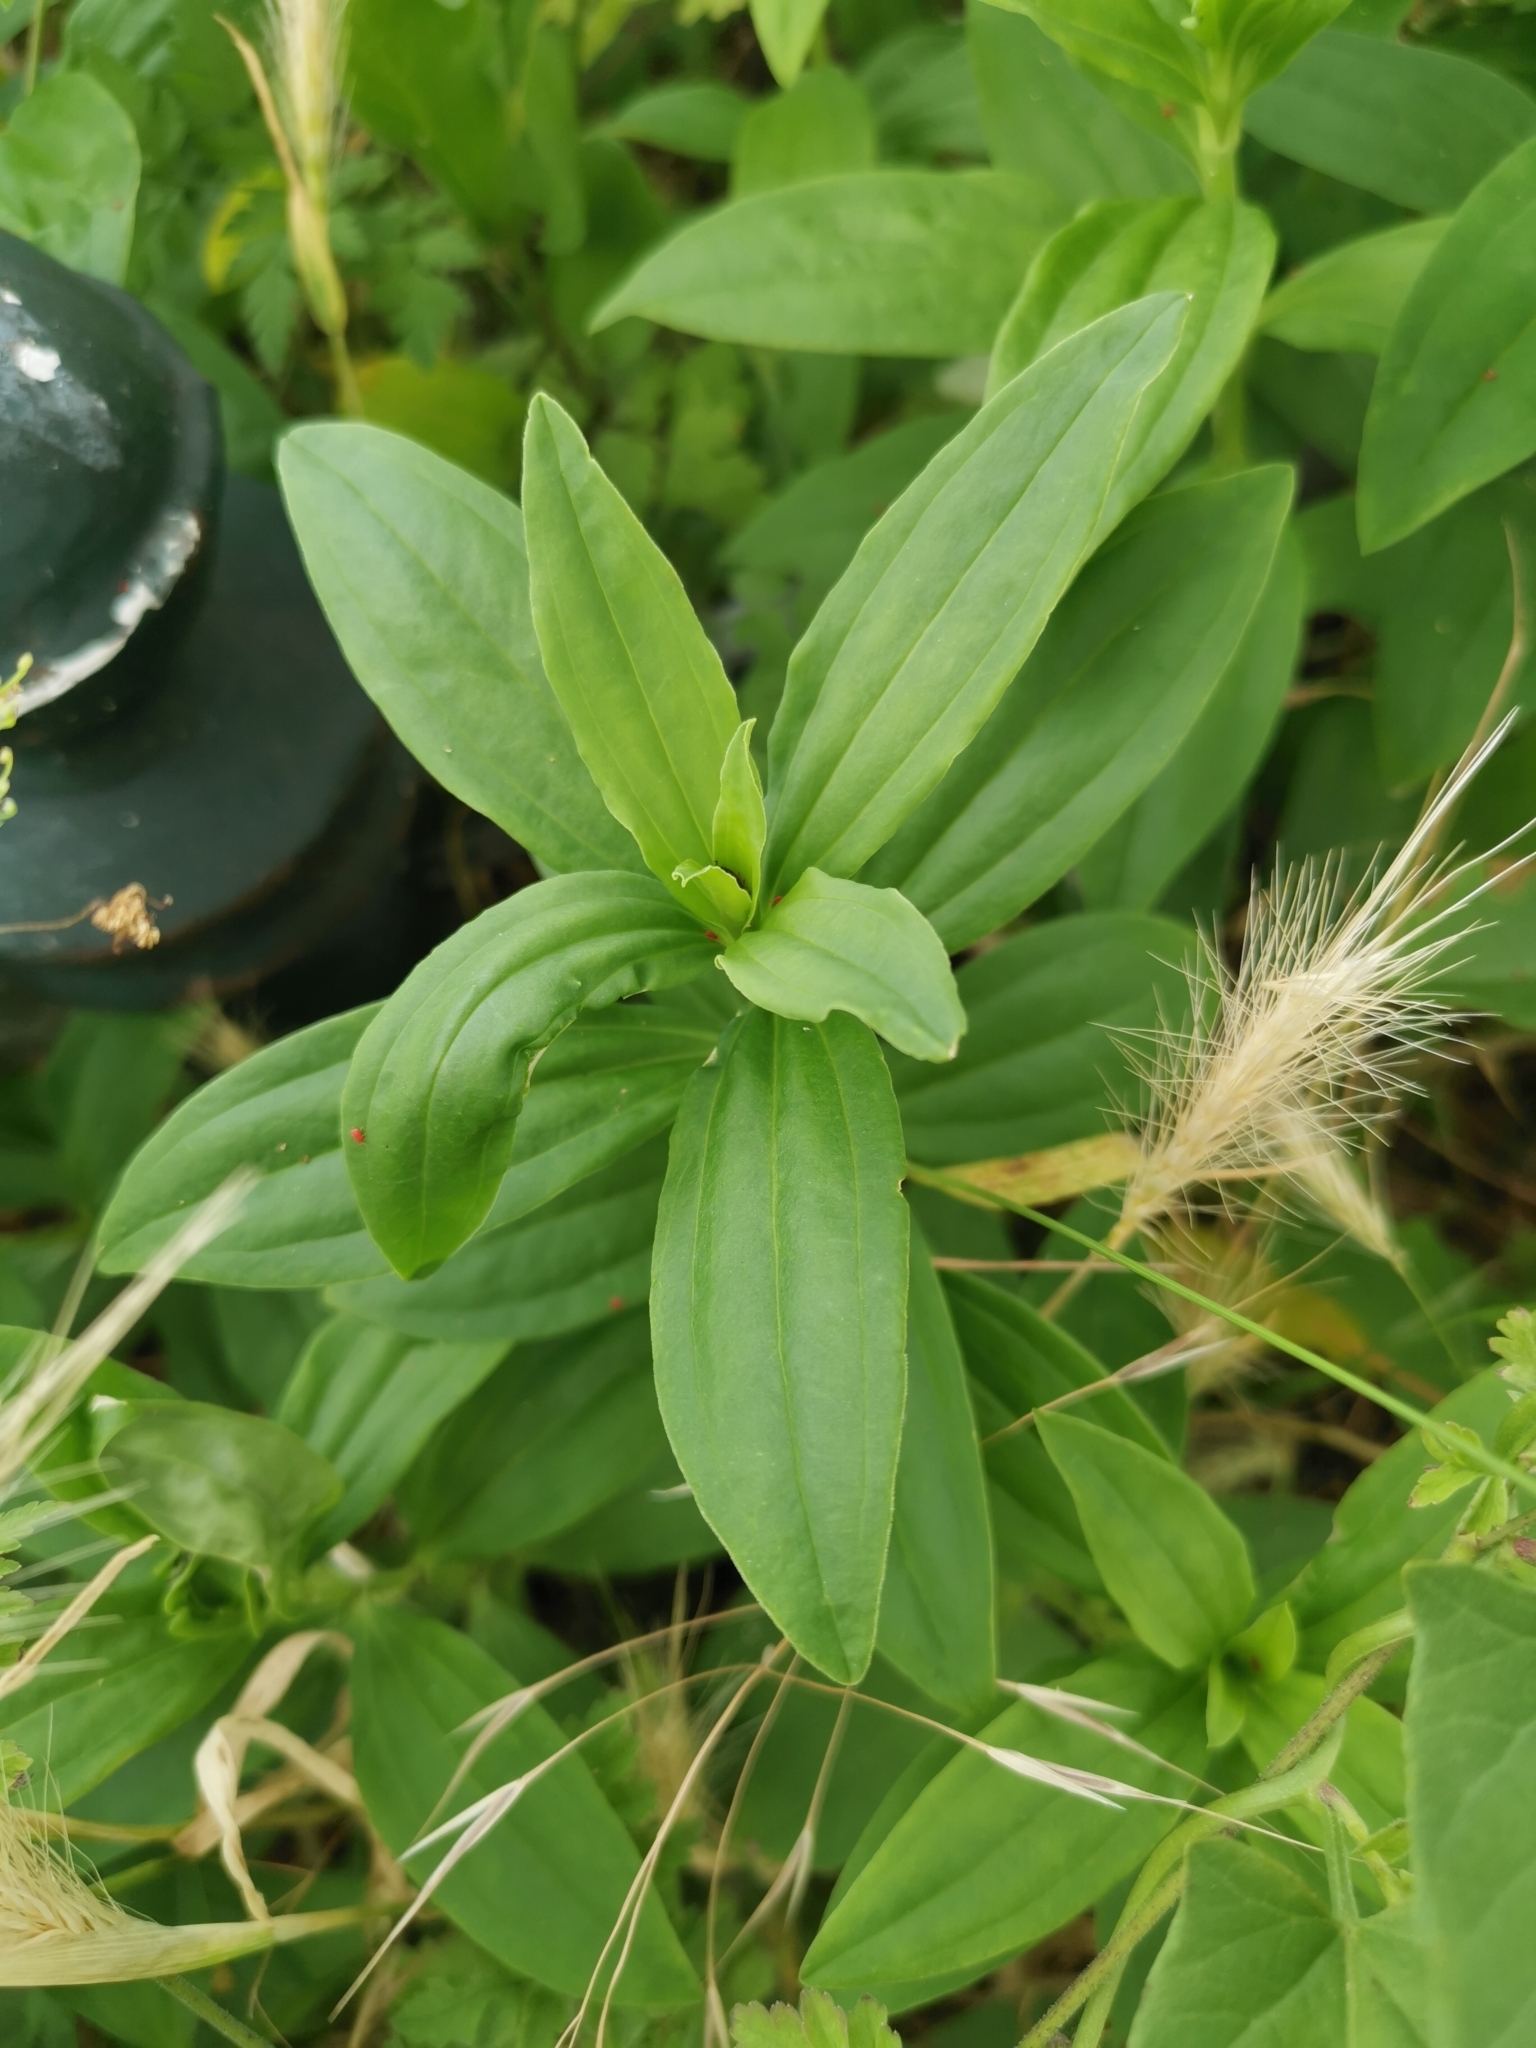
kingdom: Plantae
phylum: Tracheophyta
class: Magnoliopsida
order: Caryophyllales
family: Caryophyllaceae
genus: Saponaria
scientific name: Saponaria officinalis
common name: Soapwort
